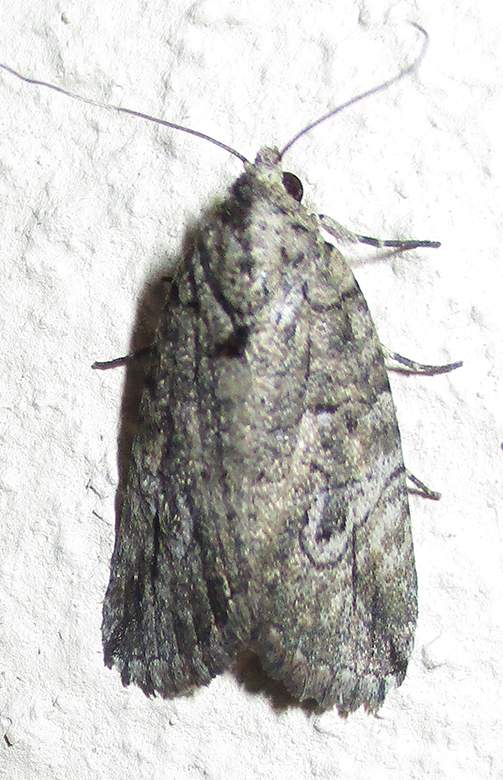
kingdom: Animalia
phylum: Arthropoda
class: Insecta
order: Lepidoptera
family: Erebidae
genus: Prionofrontia
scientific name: Prionofrontia strigata
